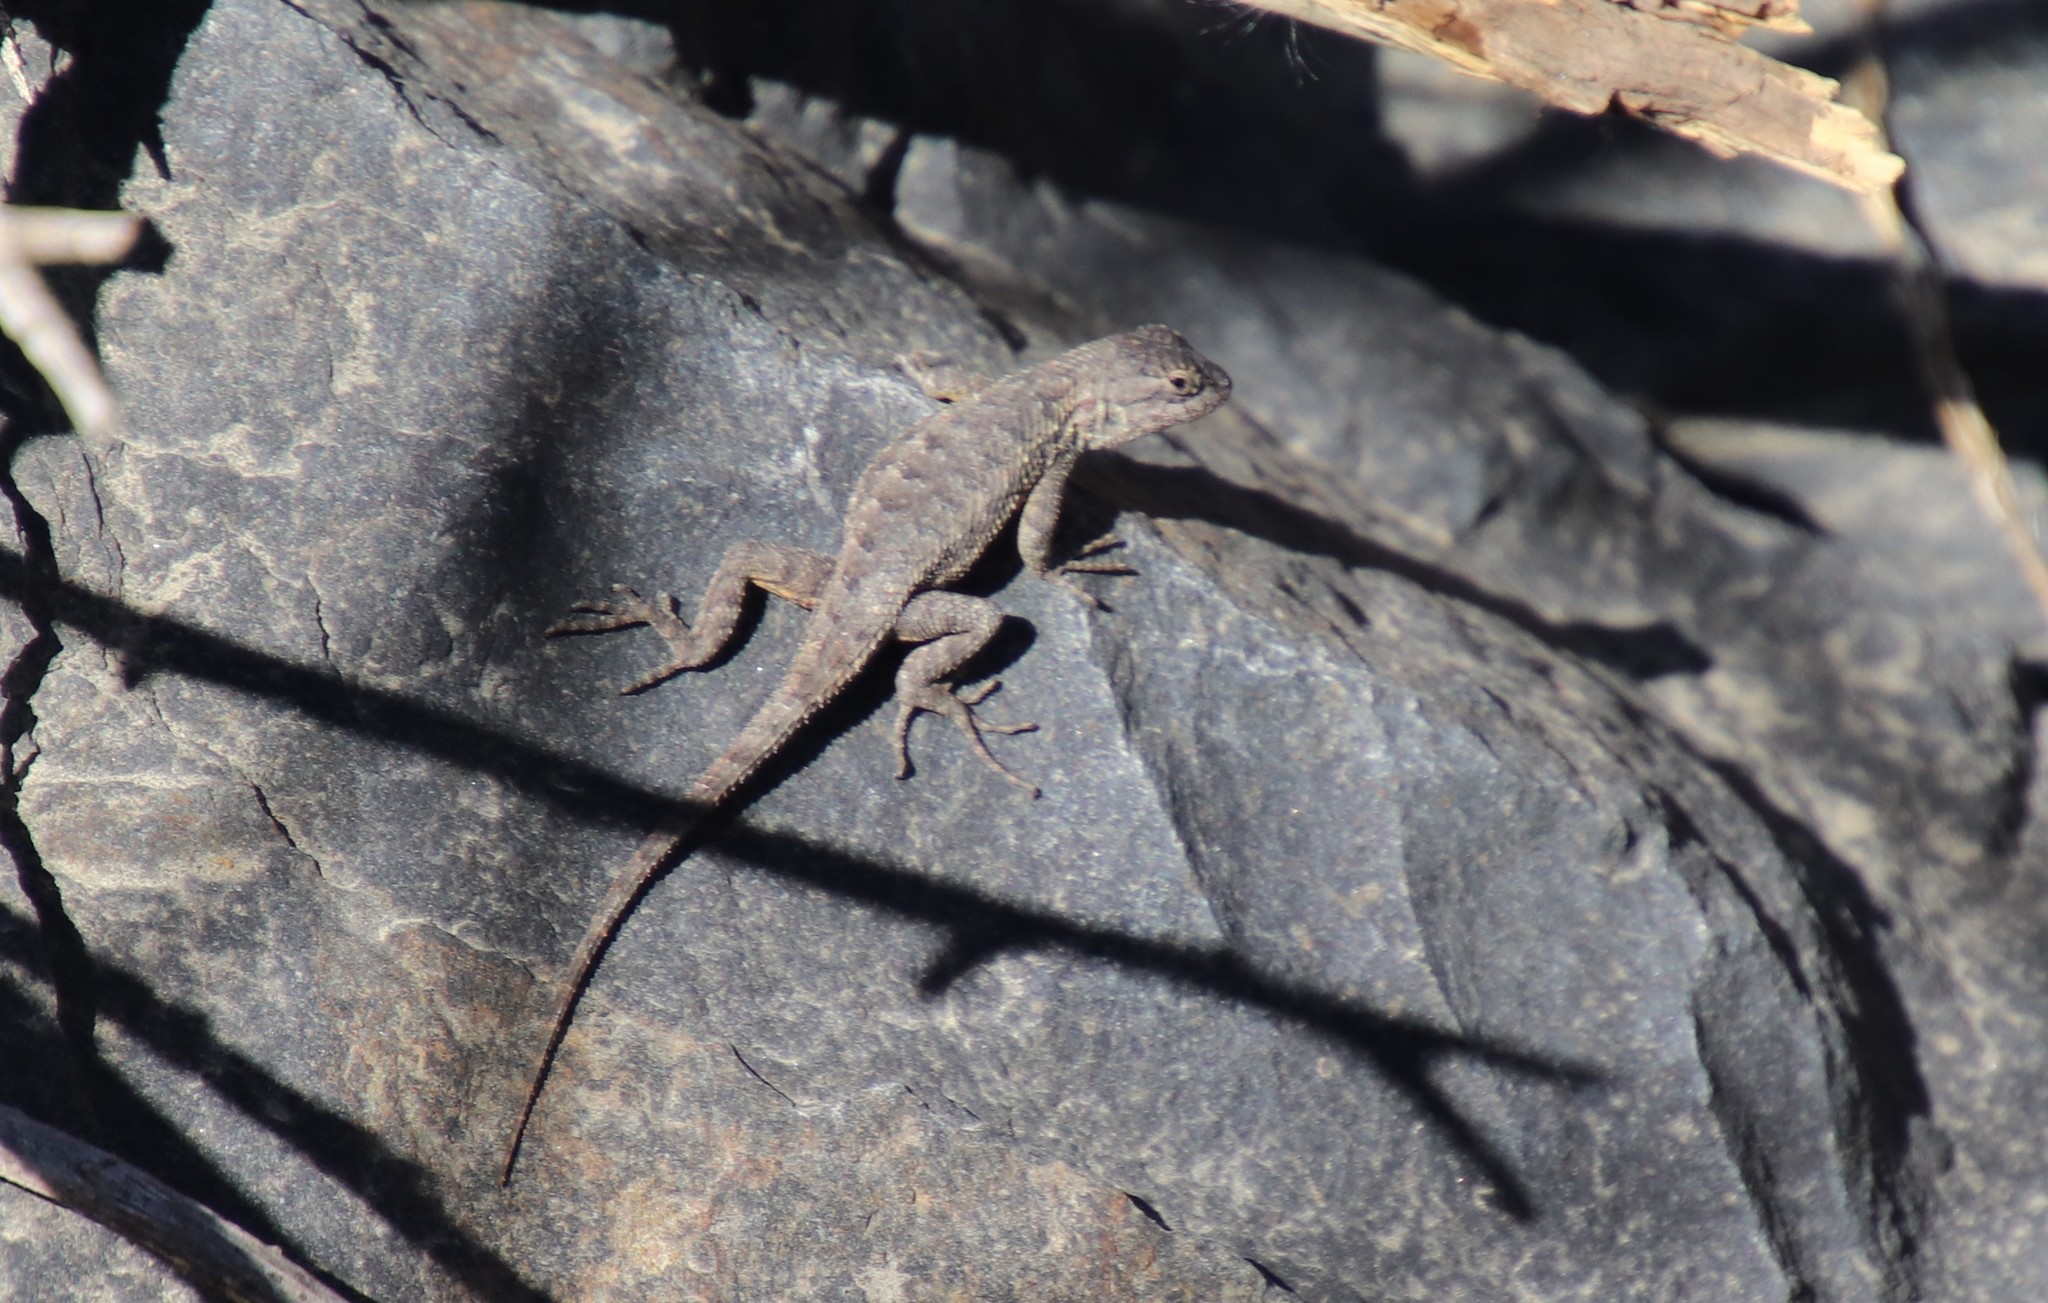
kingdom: Animalia
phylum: Chordata
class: Squamata
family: Phrynosomatidae
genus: Sceloporus
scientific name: Sceloporus occidentalis
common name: Western fence lizard
